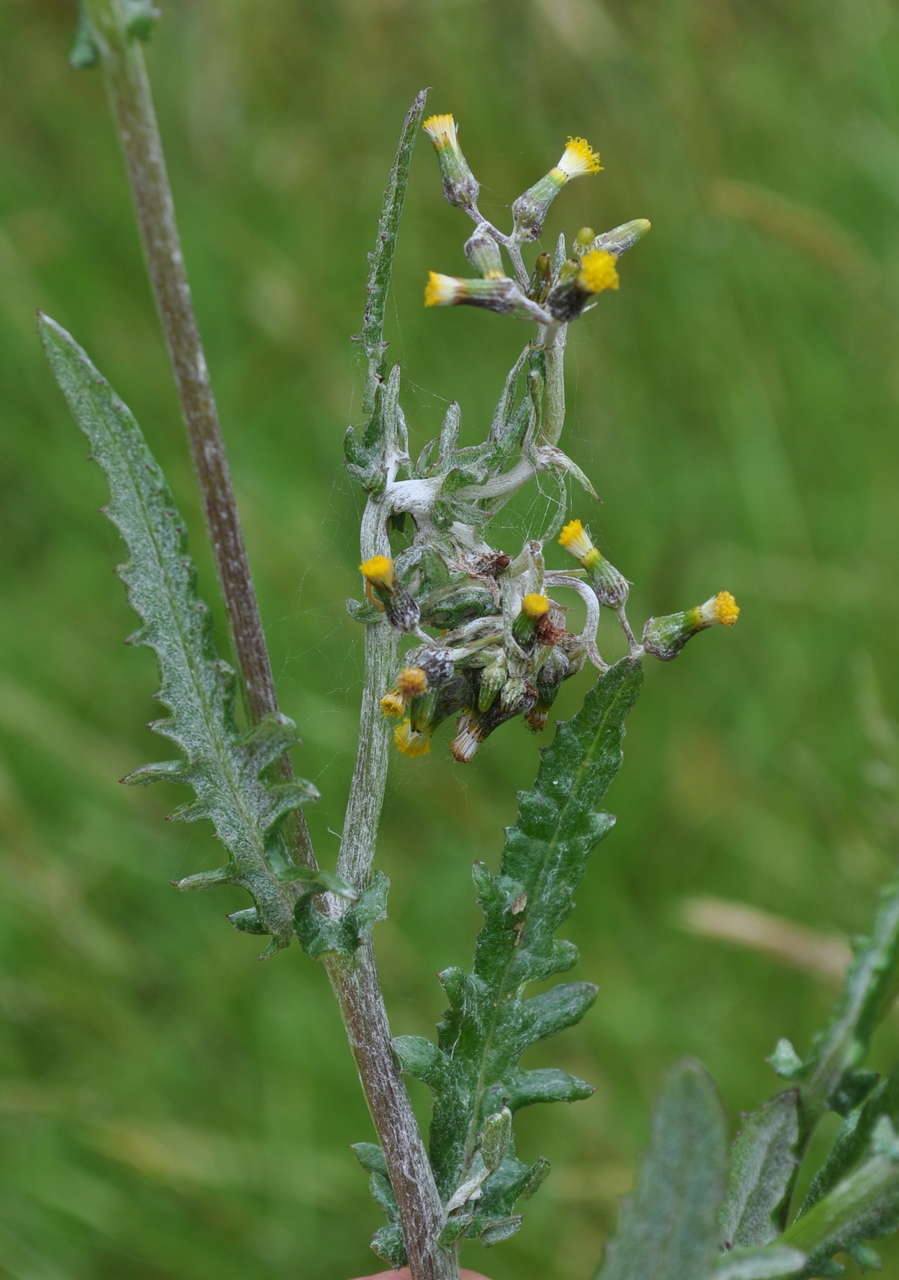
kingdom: Plantae
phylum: Tracheophyta
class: Magnoliopsida
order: Asterales
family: Asteraceae
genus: Senecio
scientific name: Senecio glomeratus
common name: Cutleaf burnweed
